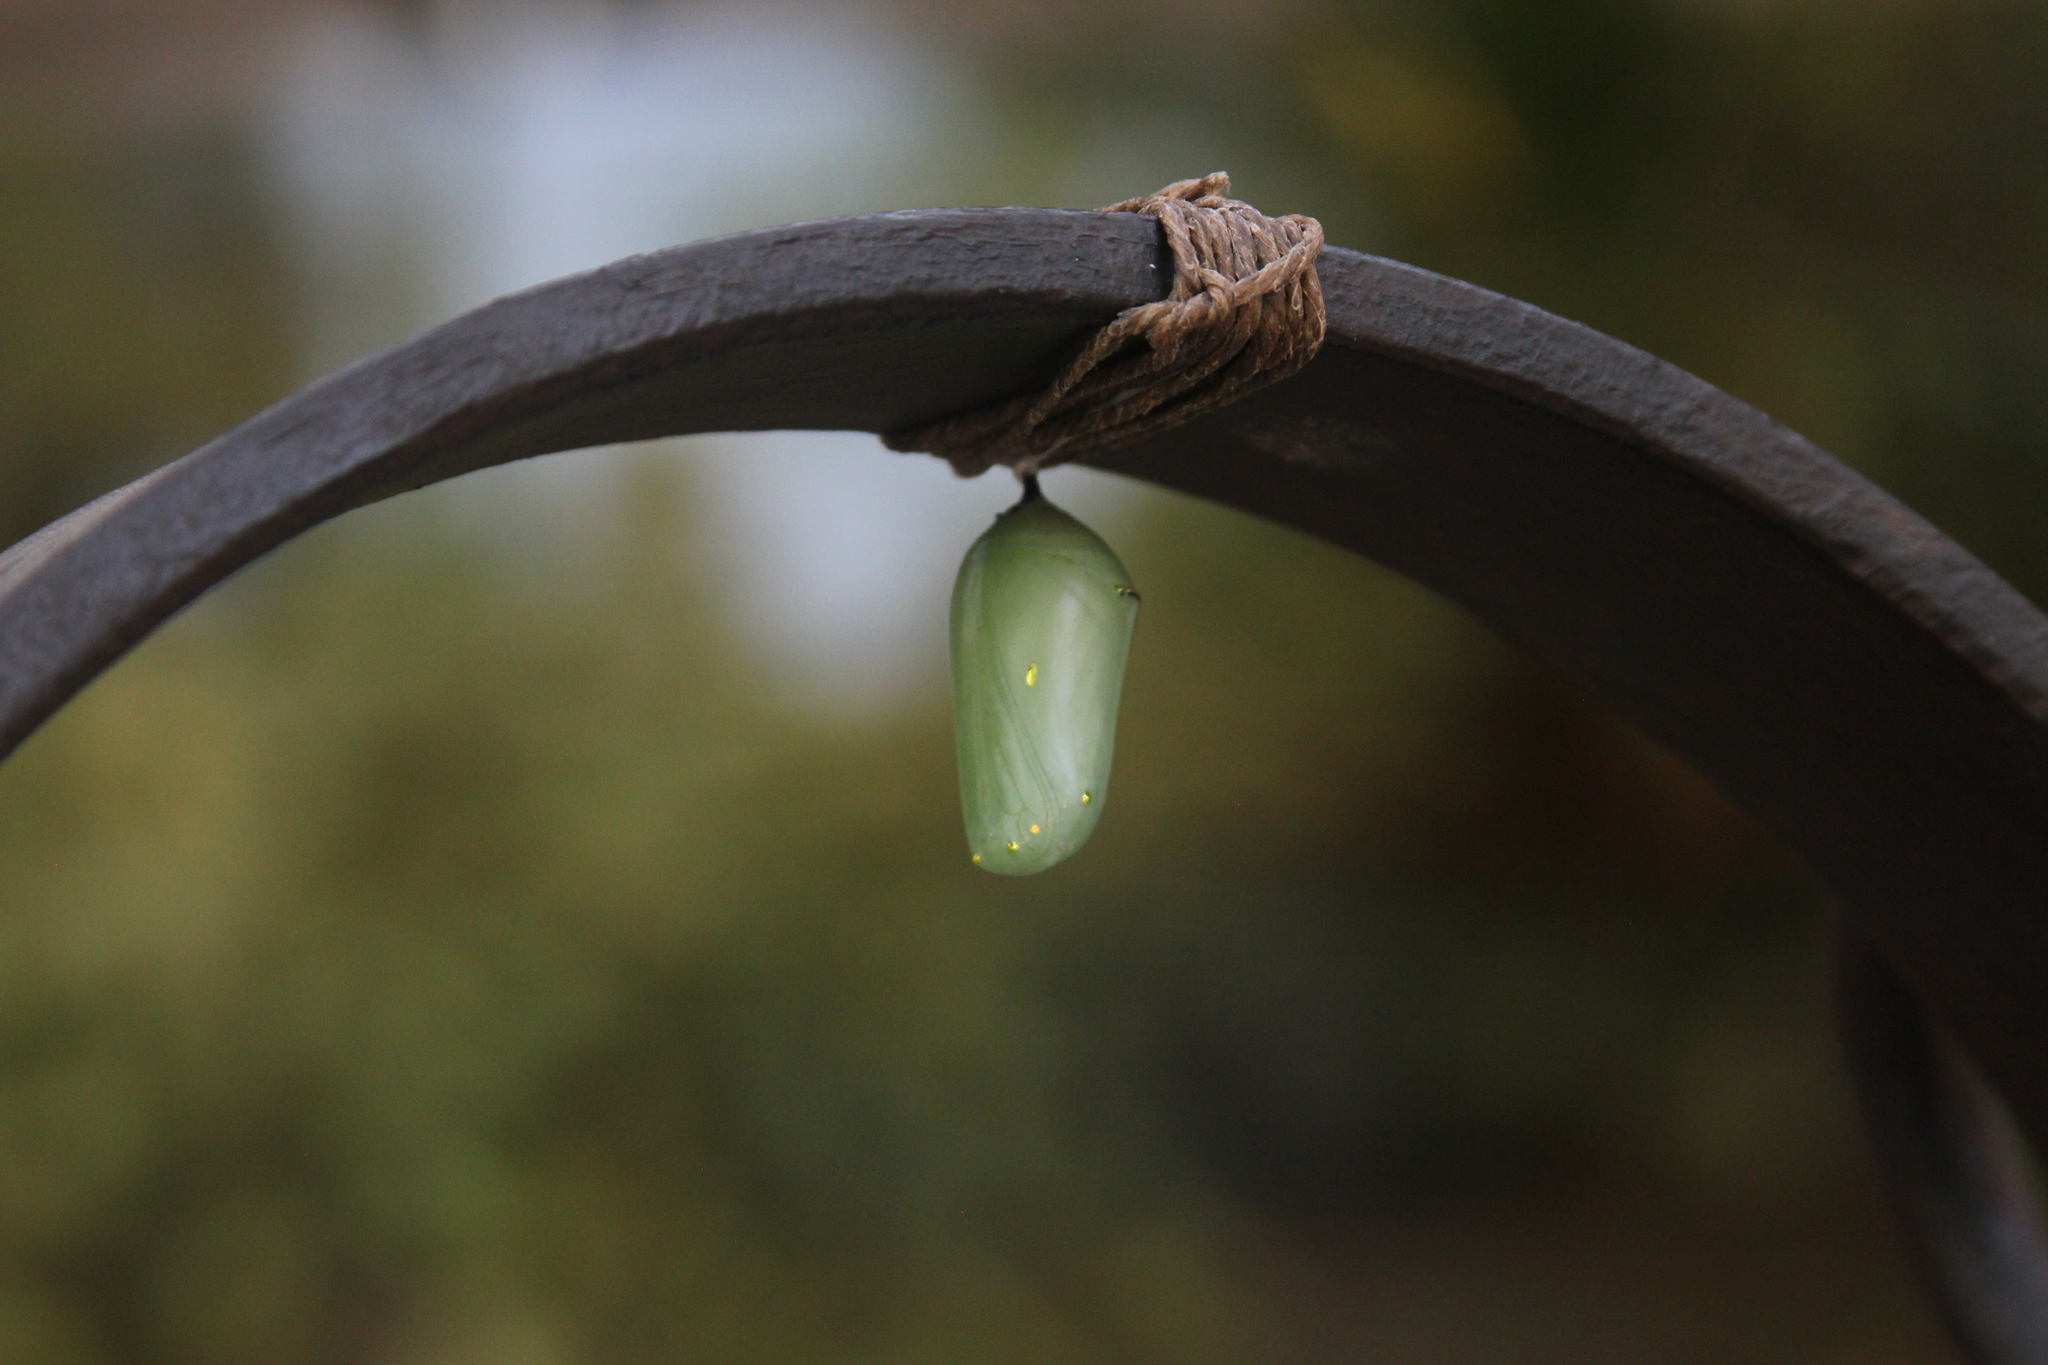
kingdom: Animalia
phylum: Arthropoda
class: Insecta
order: Lepidoptera
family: Nymphalidae
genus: Danaus
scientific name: Danaus plexippus
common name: Monarch
